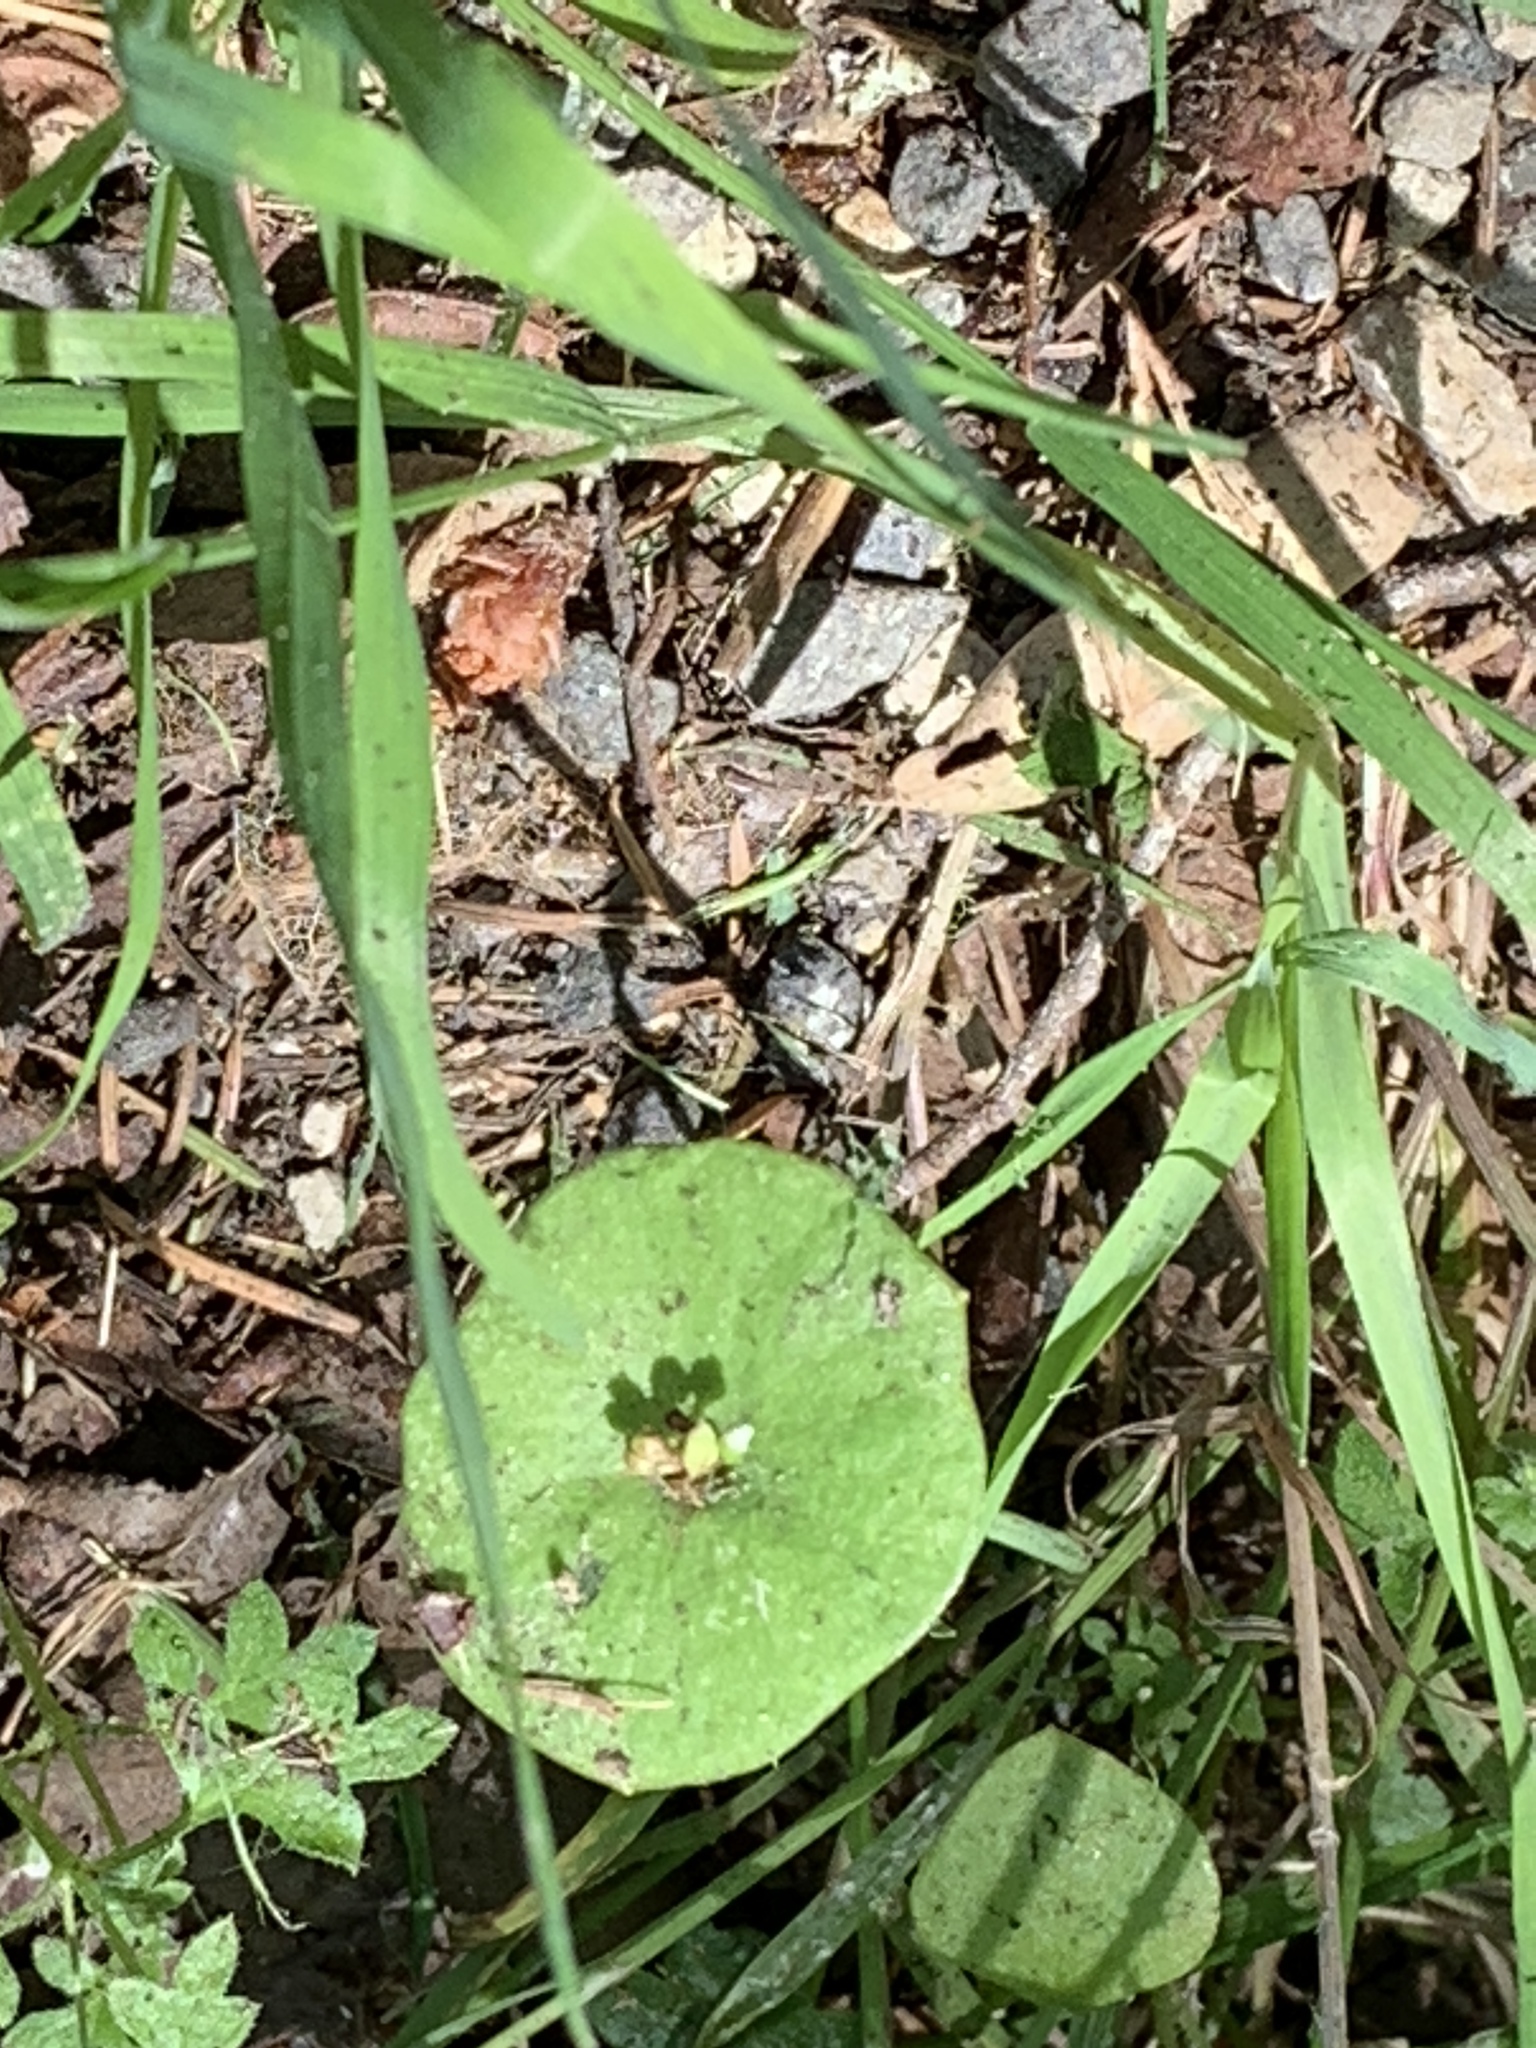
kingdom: Plantae
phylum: Tracheophyta
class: Magnoliopsida
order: Caryophyllales
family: Montiaceae
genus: Claytonia
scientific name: Claytonia perfoliata
